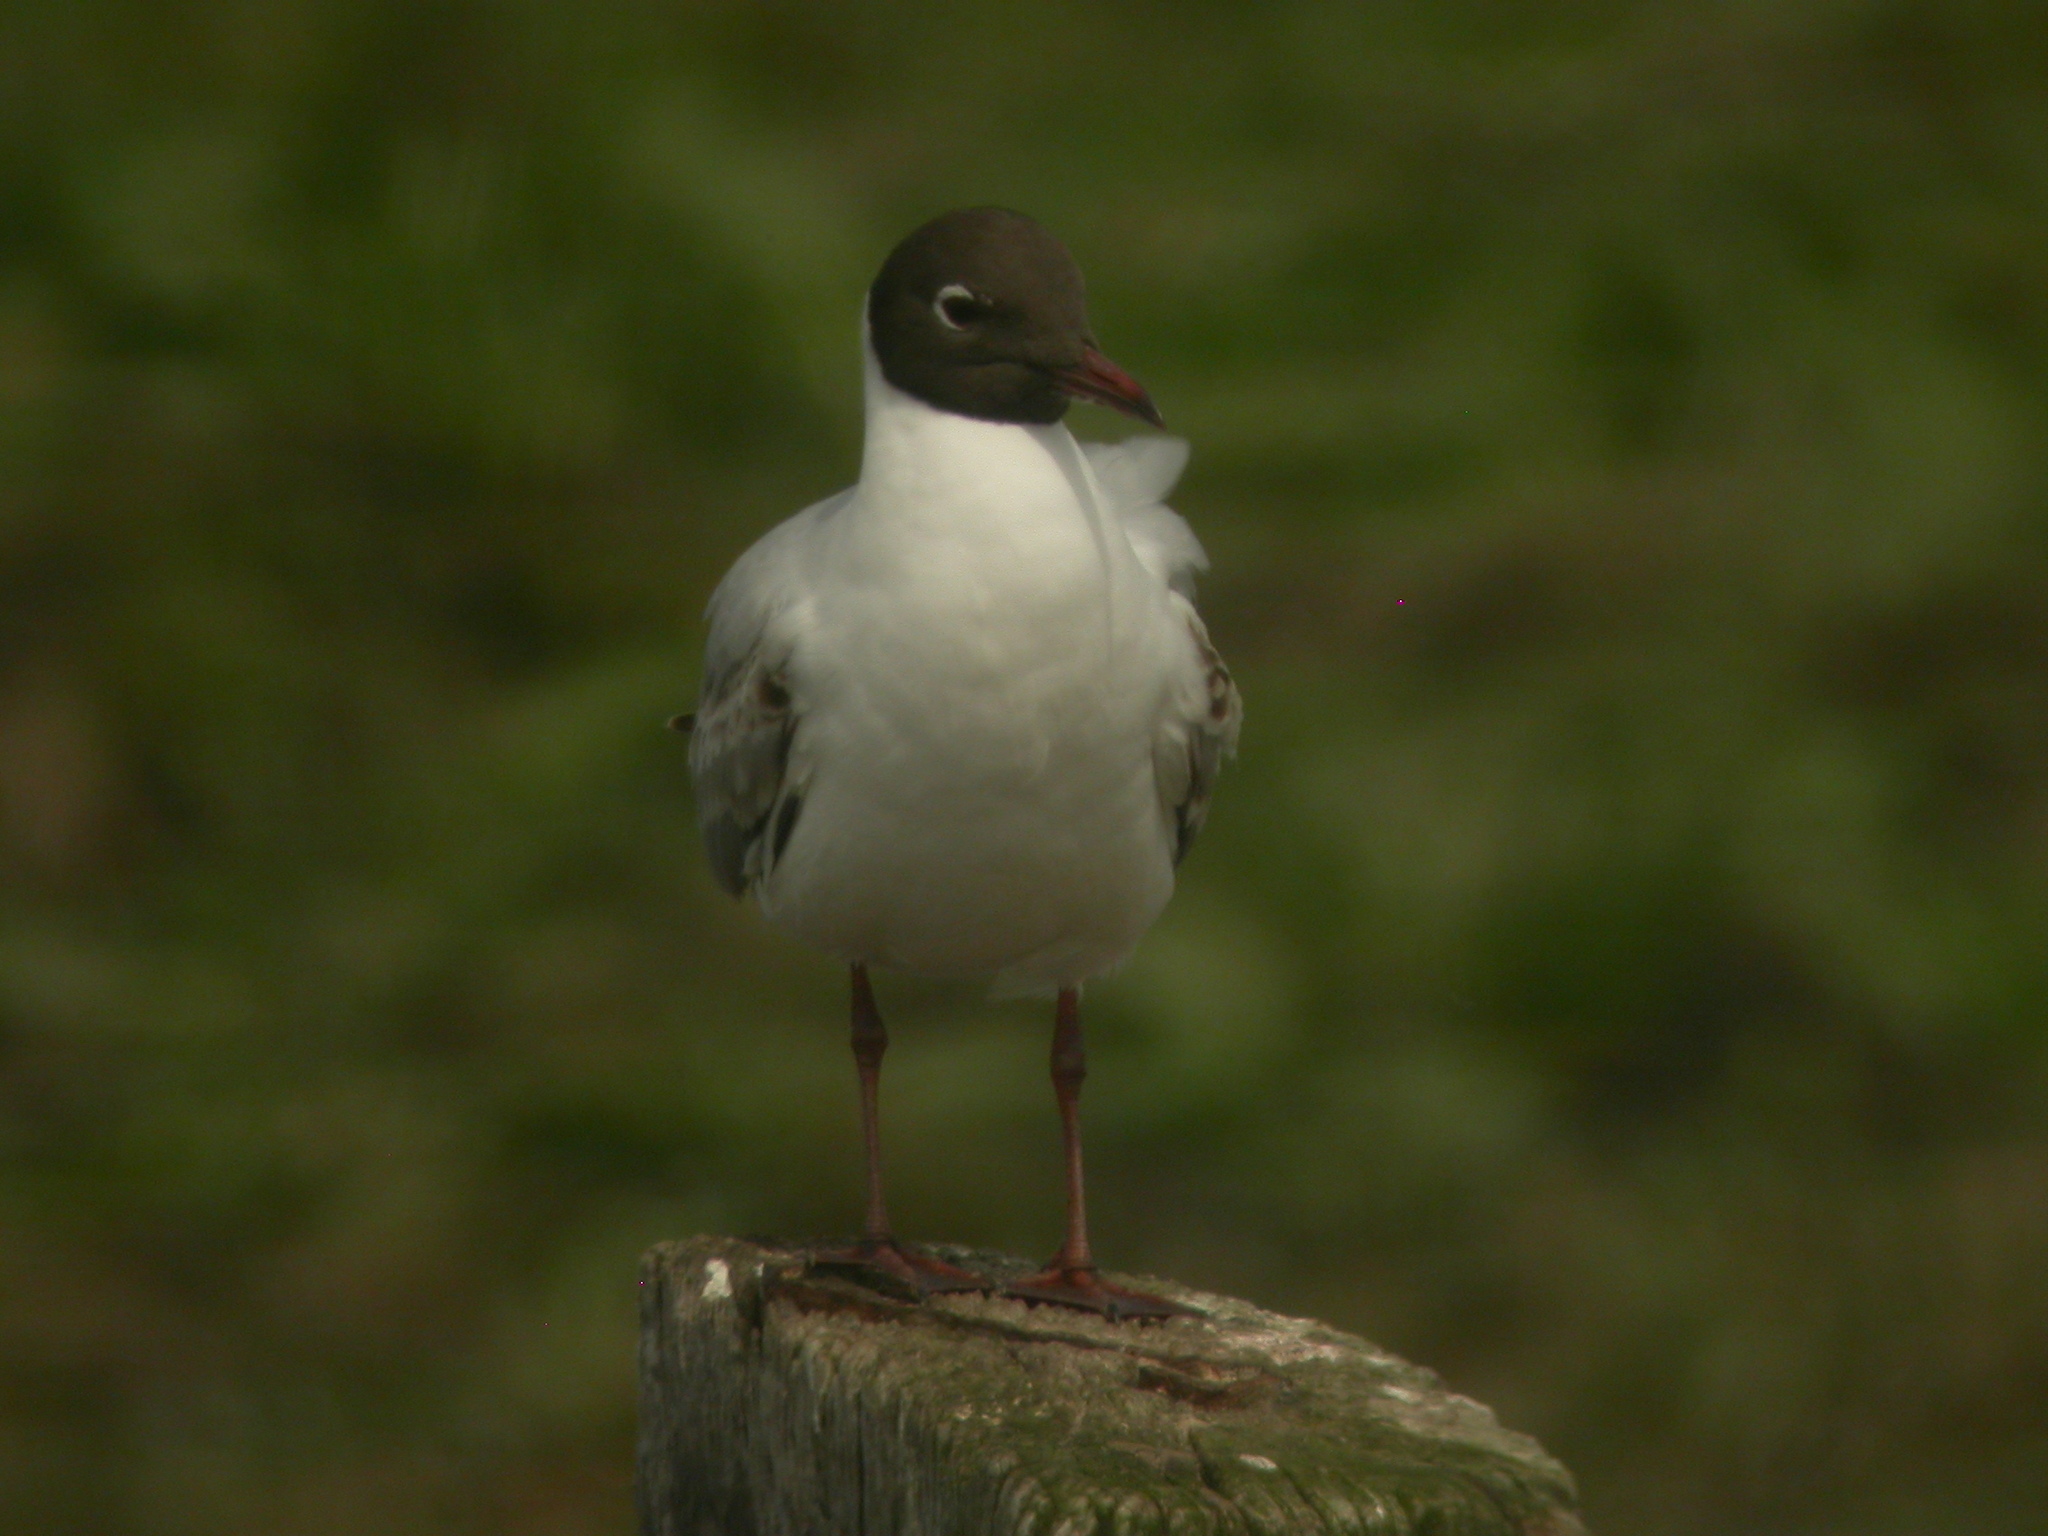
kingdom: Animalia
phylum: Chordata
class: Aves
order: Charadriiformes
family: Laridae
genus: Chroicocephalus
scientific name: Chroicocephalus ridibundus
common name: Black-headed gull
